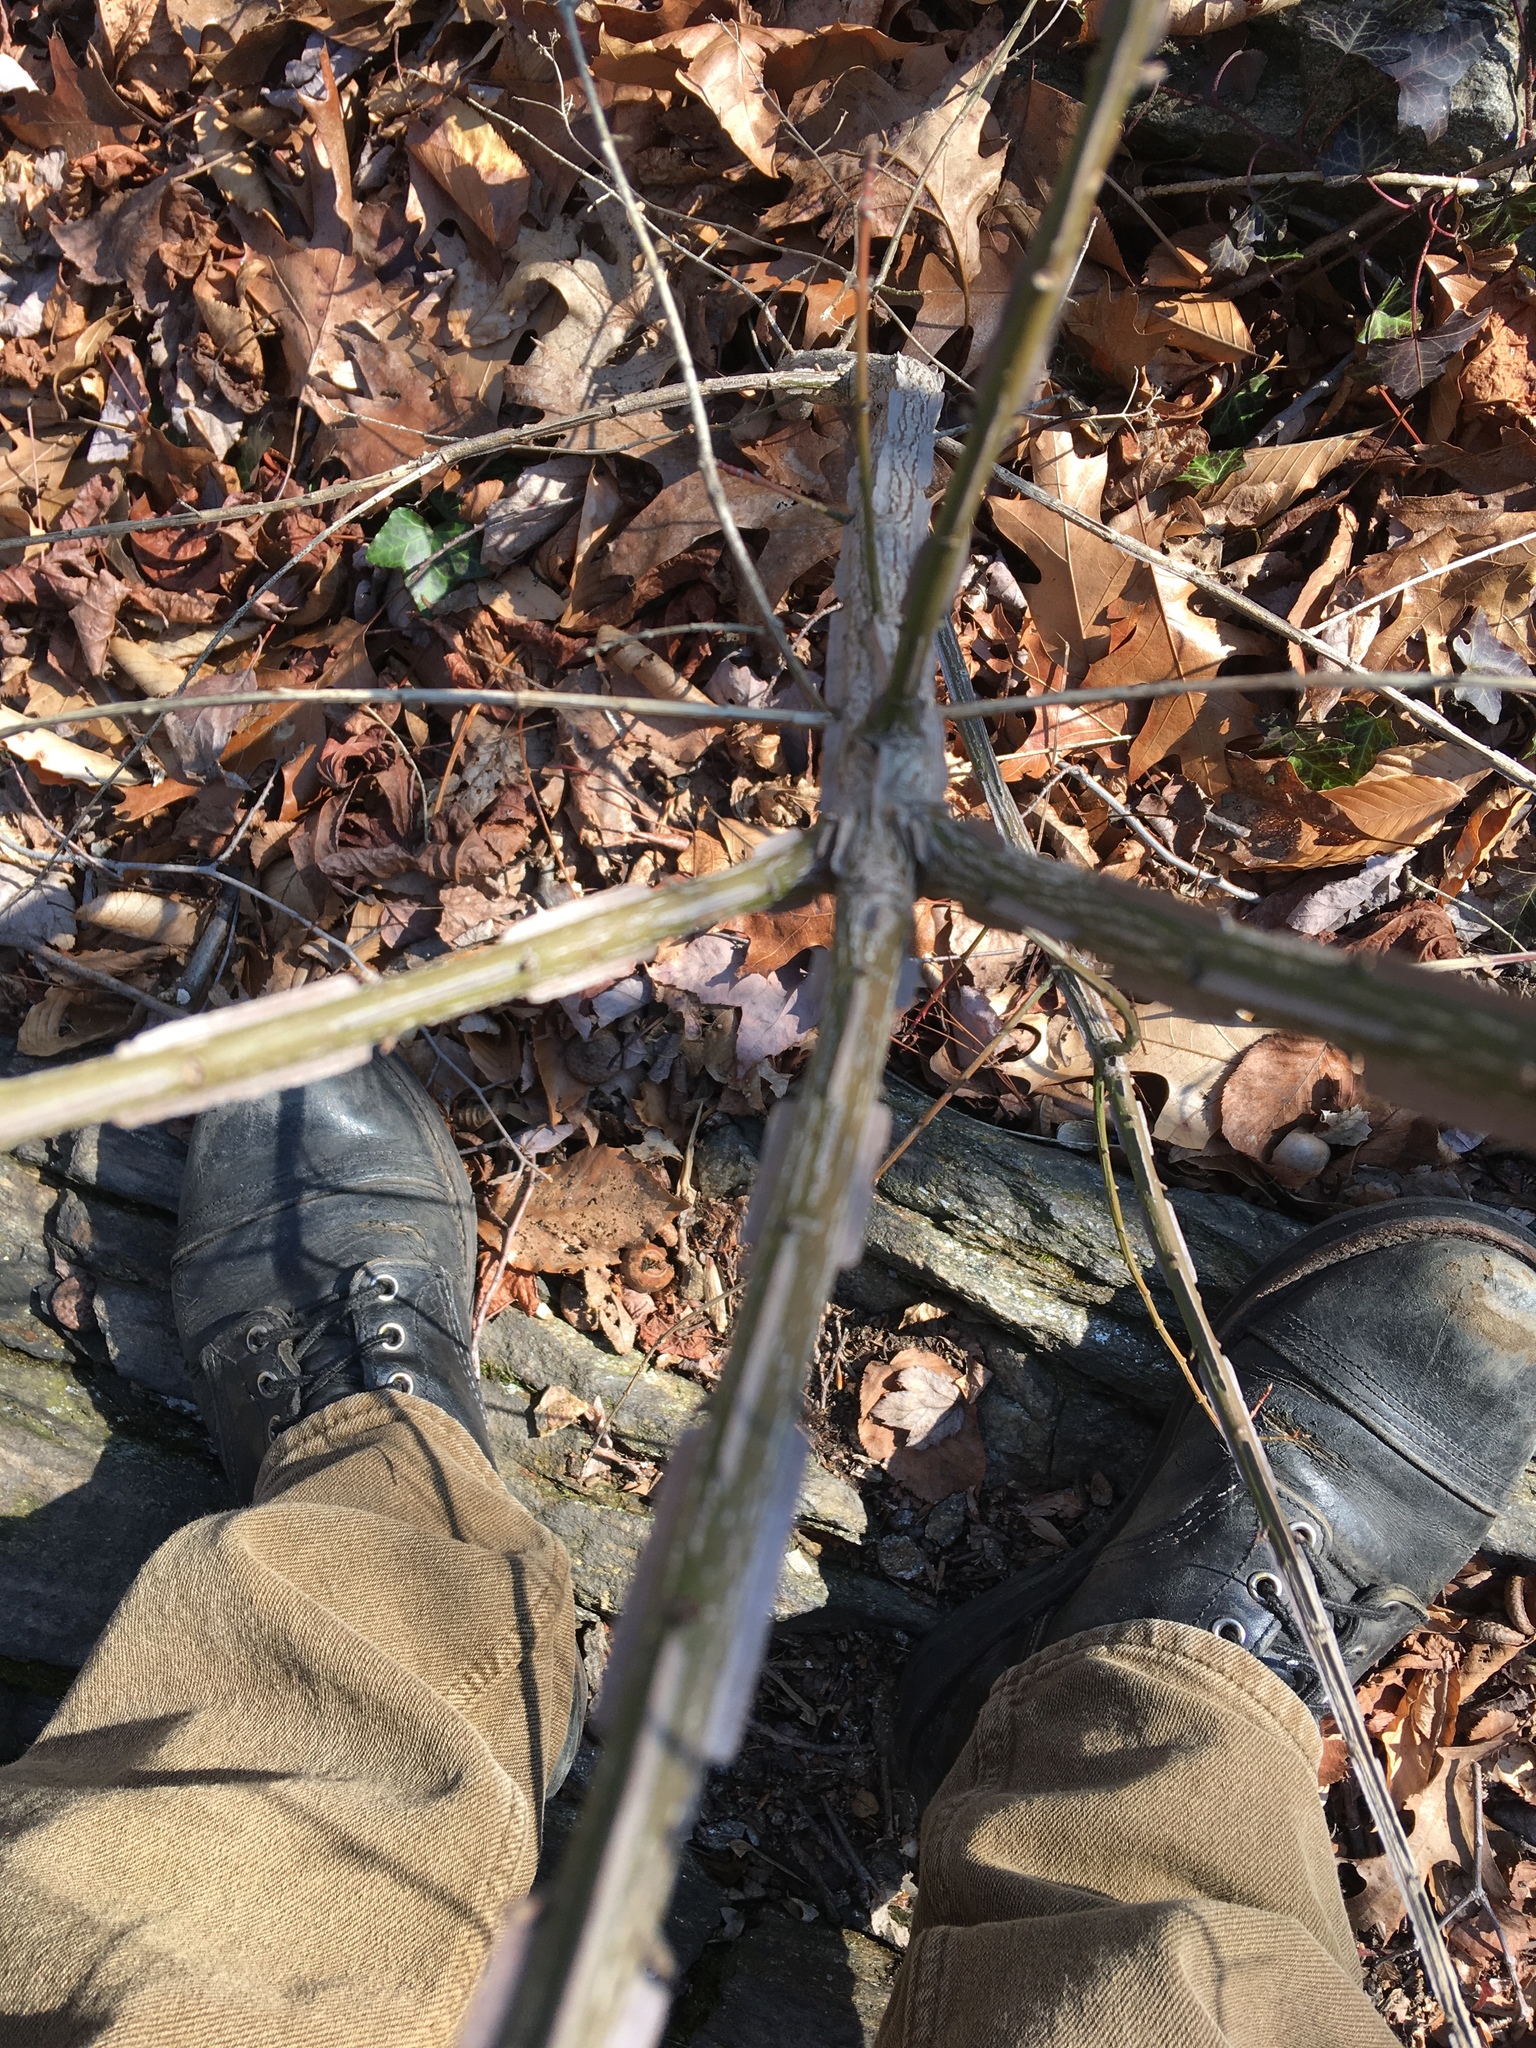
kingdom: Plantae
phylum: Tracheophyta
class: Magnoliopsida
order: Celastrales
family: Celastraceae
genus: Euonymus
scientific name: Euonymus alatus
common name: Winged euonymus
